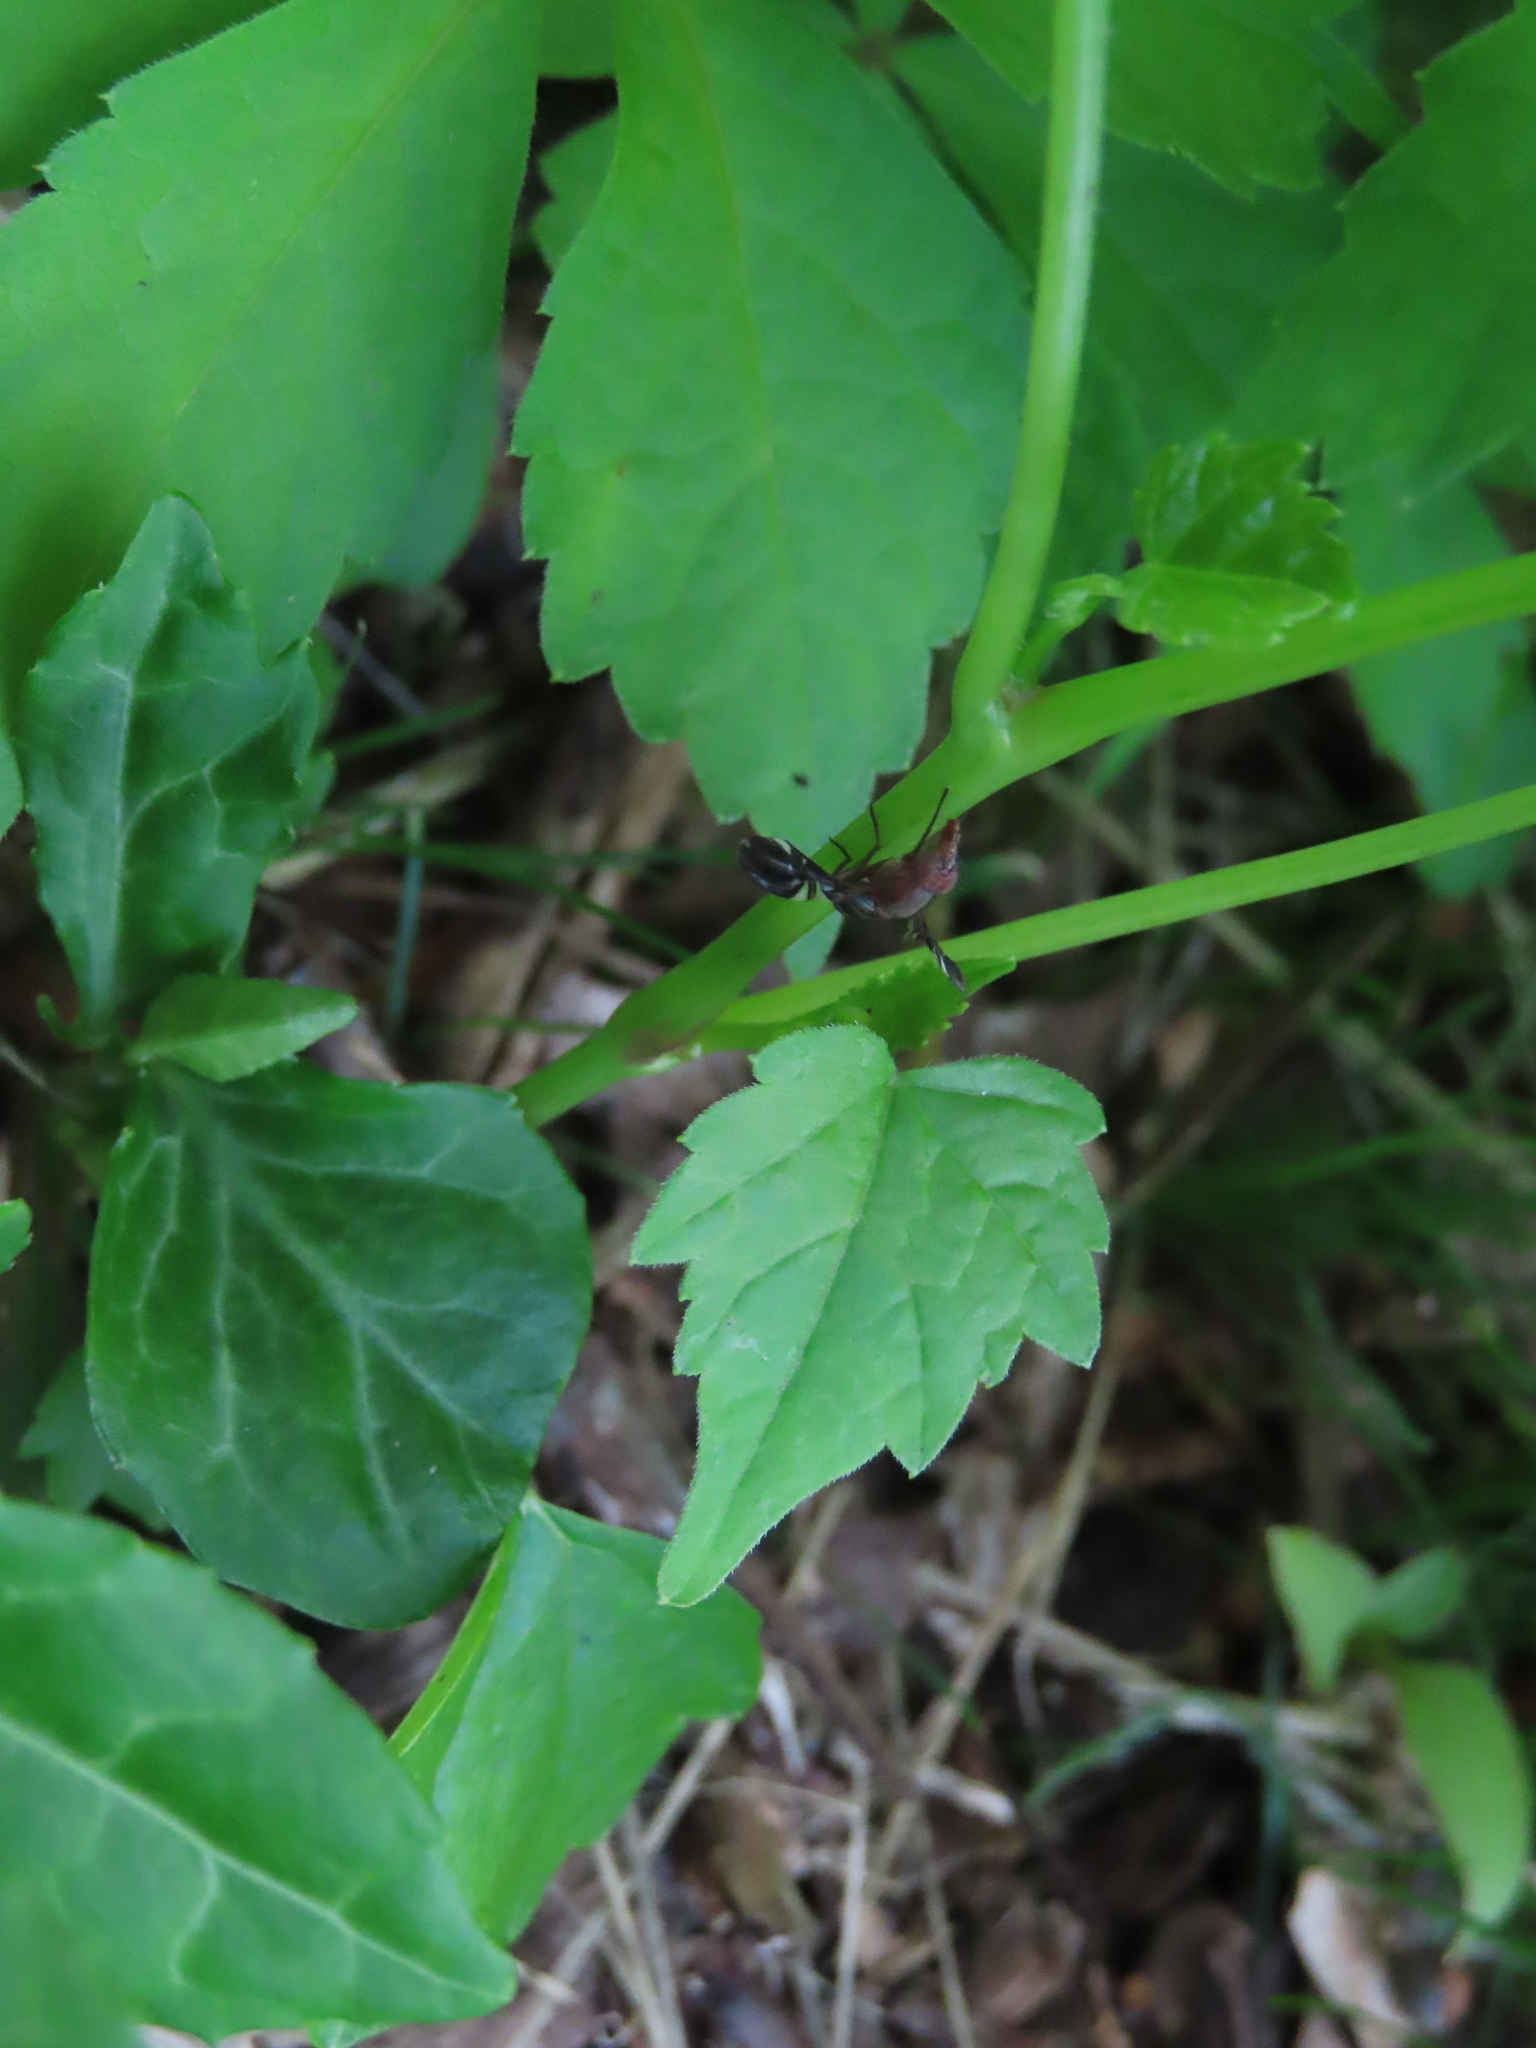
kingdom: Animalia
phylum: Arthropoda
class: Insecta
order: Diptera
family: Ulidiidae
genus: Delphinia
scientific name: Delphinia picta
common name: Common picture-winged fly
